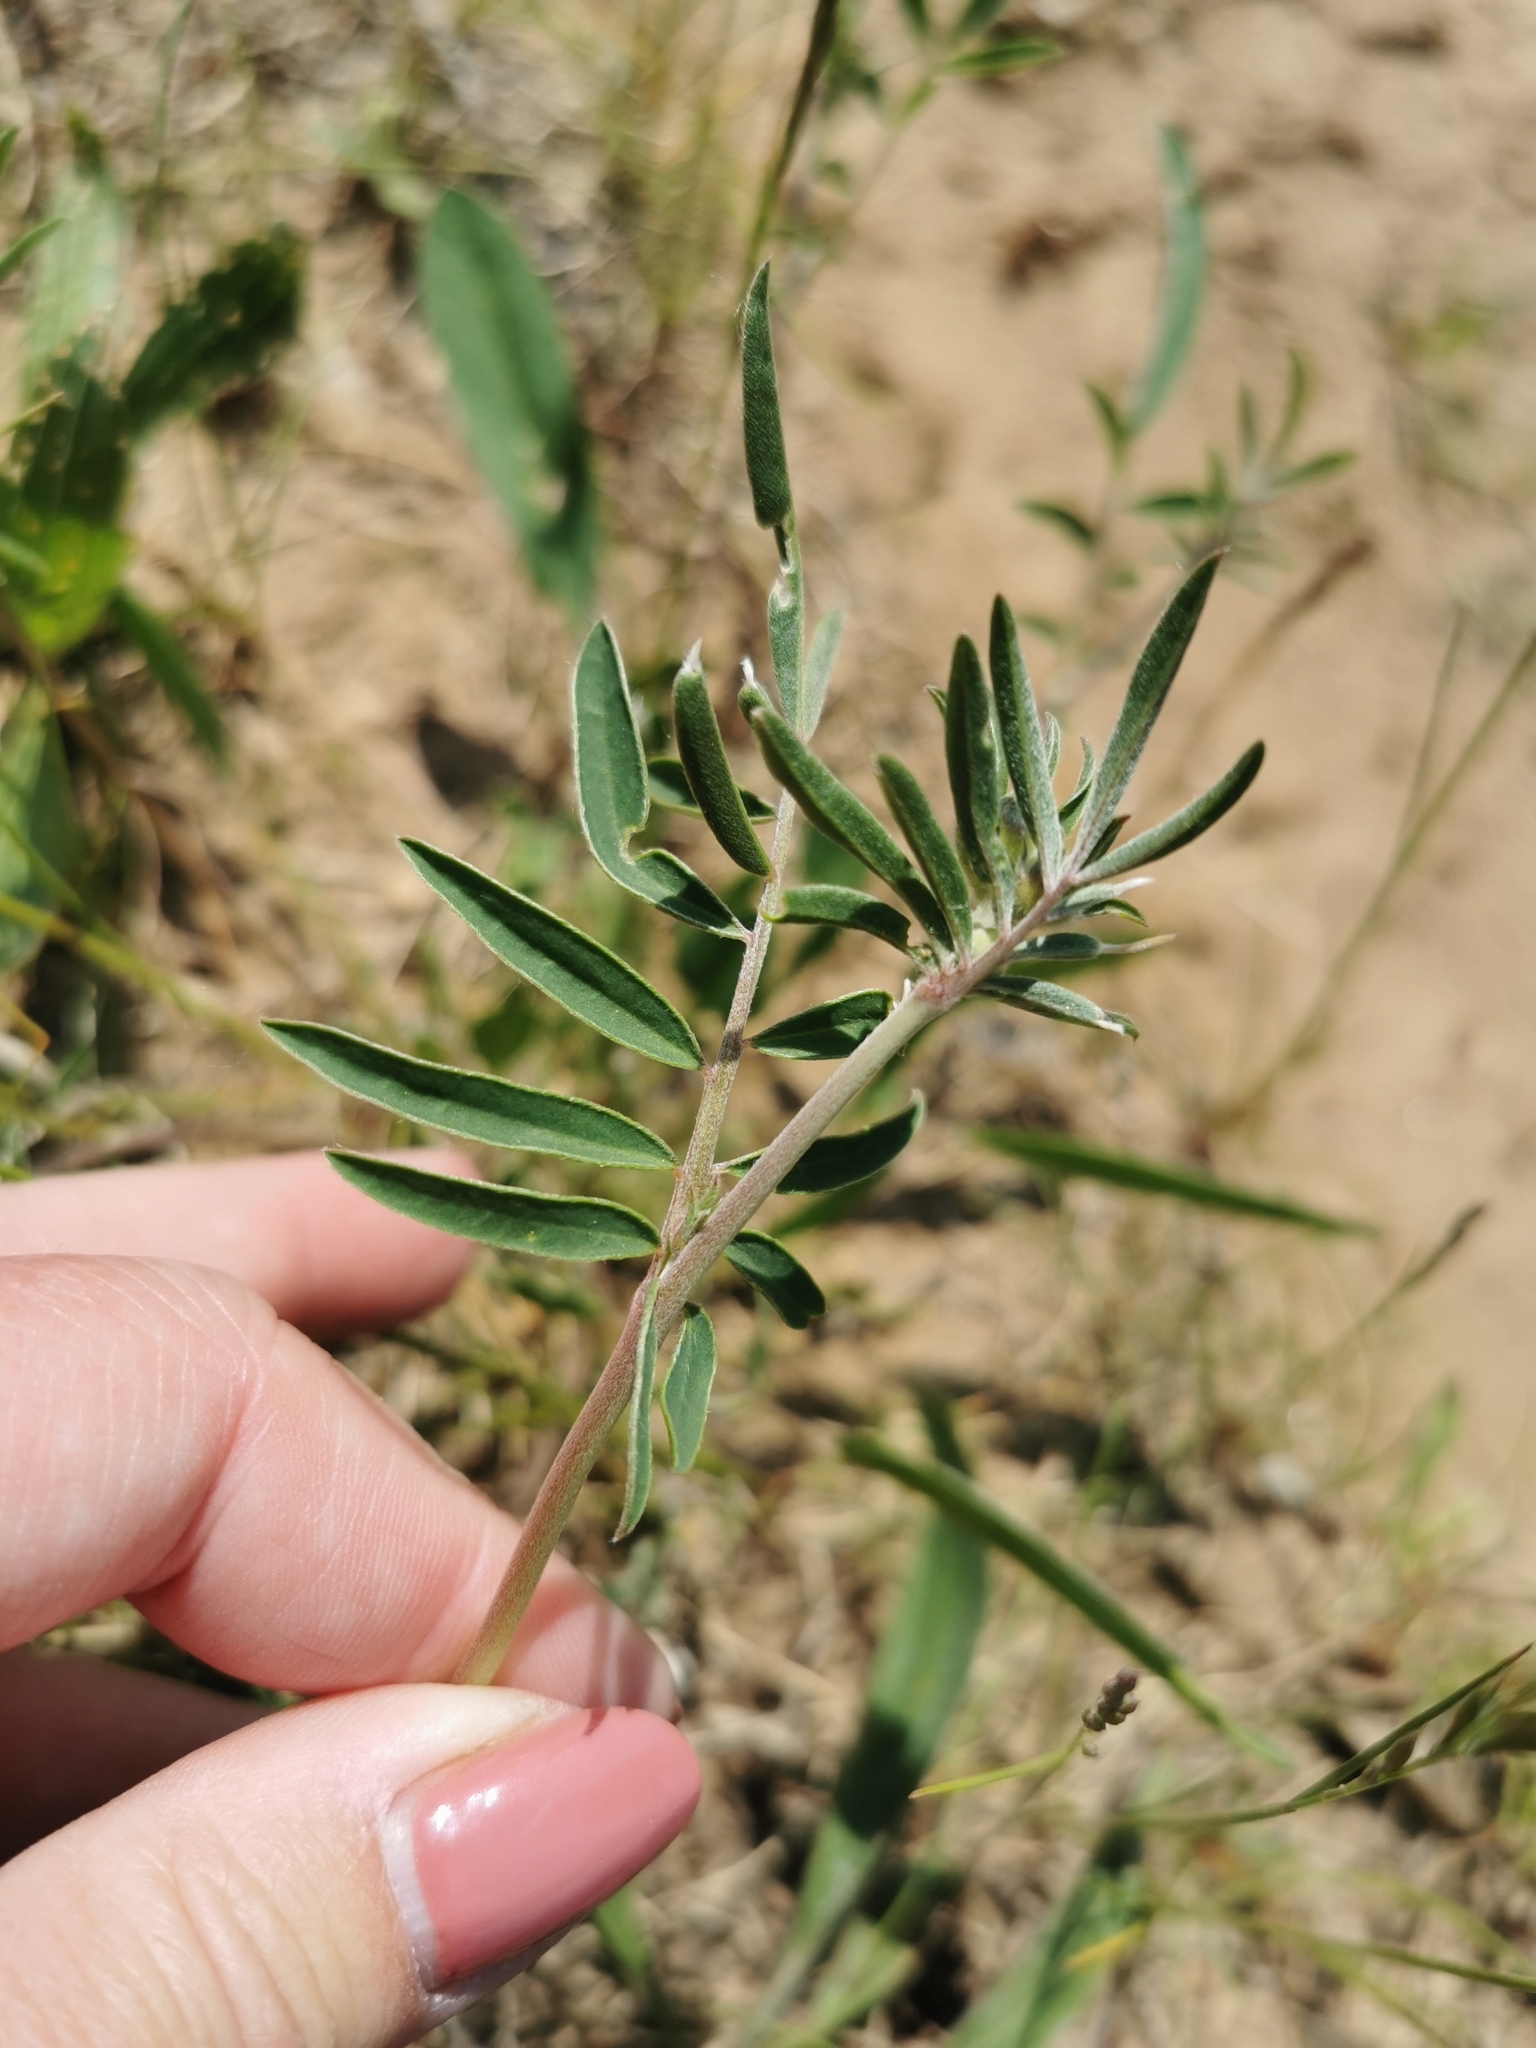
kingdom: Plantae
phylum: Tracheophyta
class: Magnoliopsida
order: Fabales
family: Fabaceae
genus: Anthyllis
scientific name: Anthyllis vulneraria
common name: Kidney vetch
